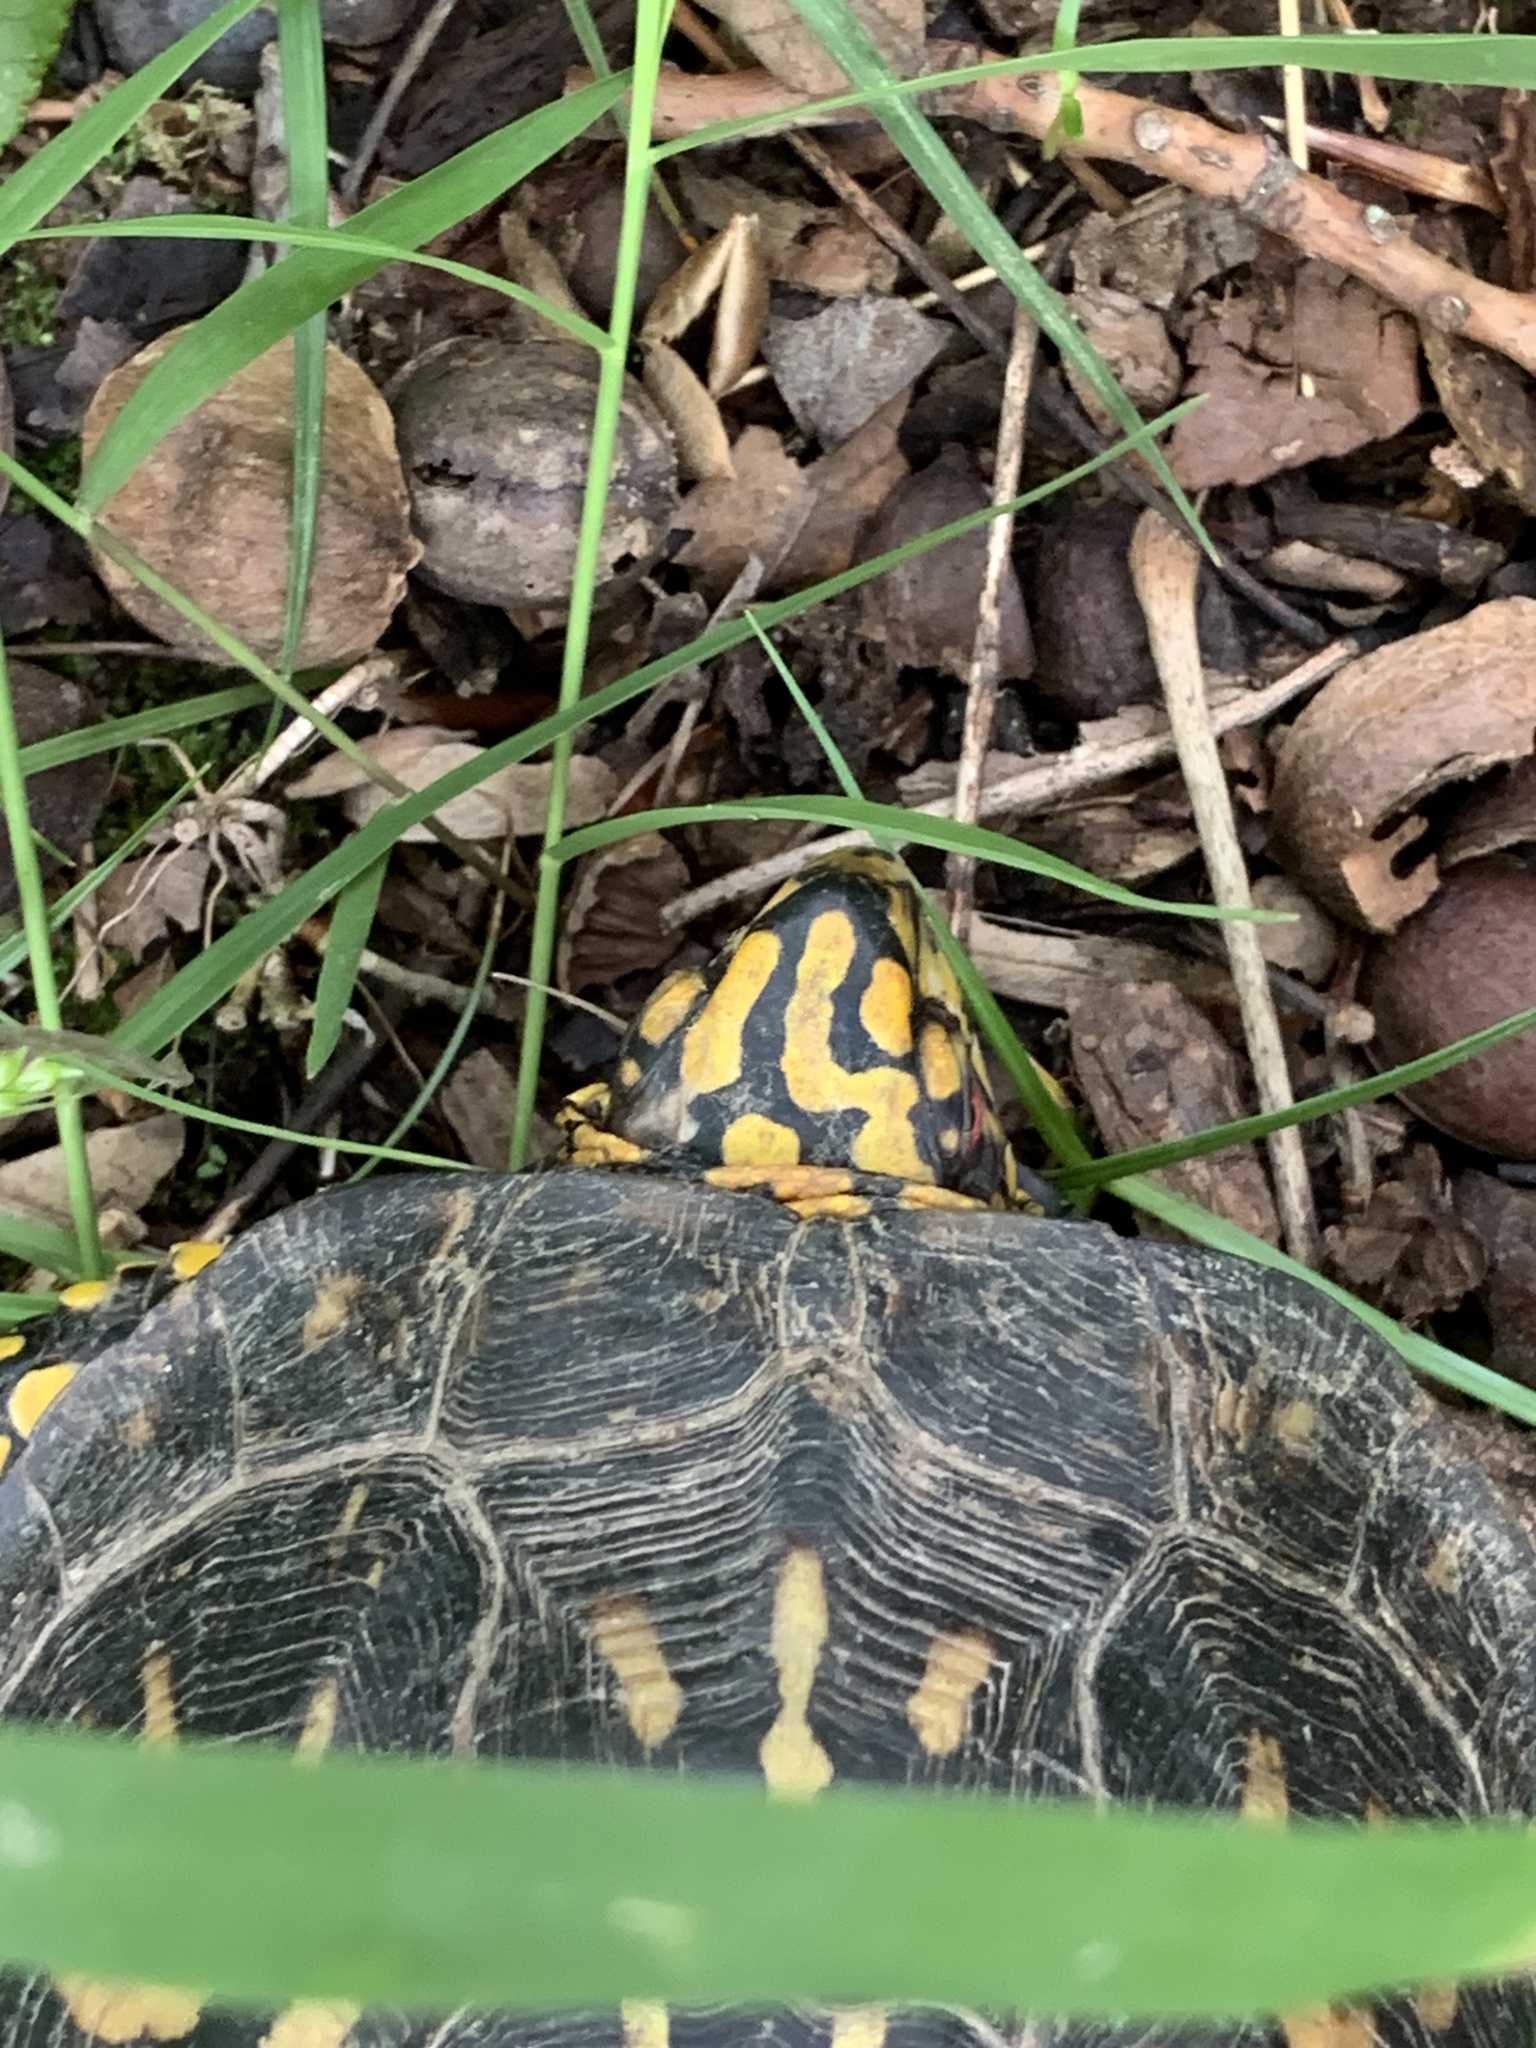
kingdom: Animalia
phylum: Chordata
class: Testudines
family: Emydidae
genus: Terrapene
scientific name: Terrapene carolina
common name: Common box turtle
